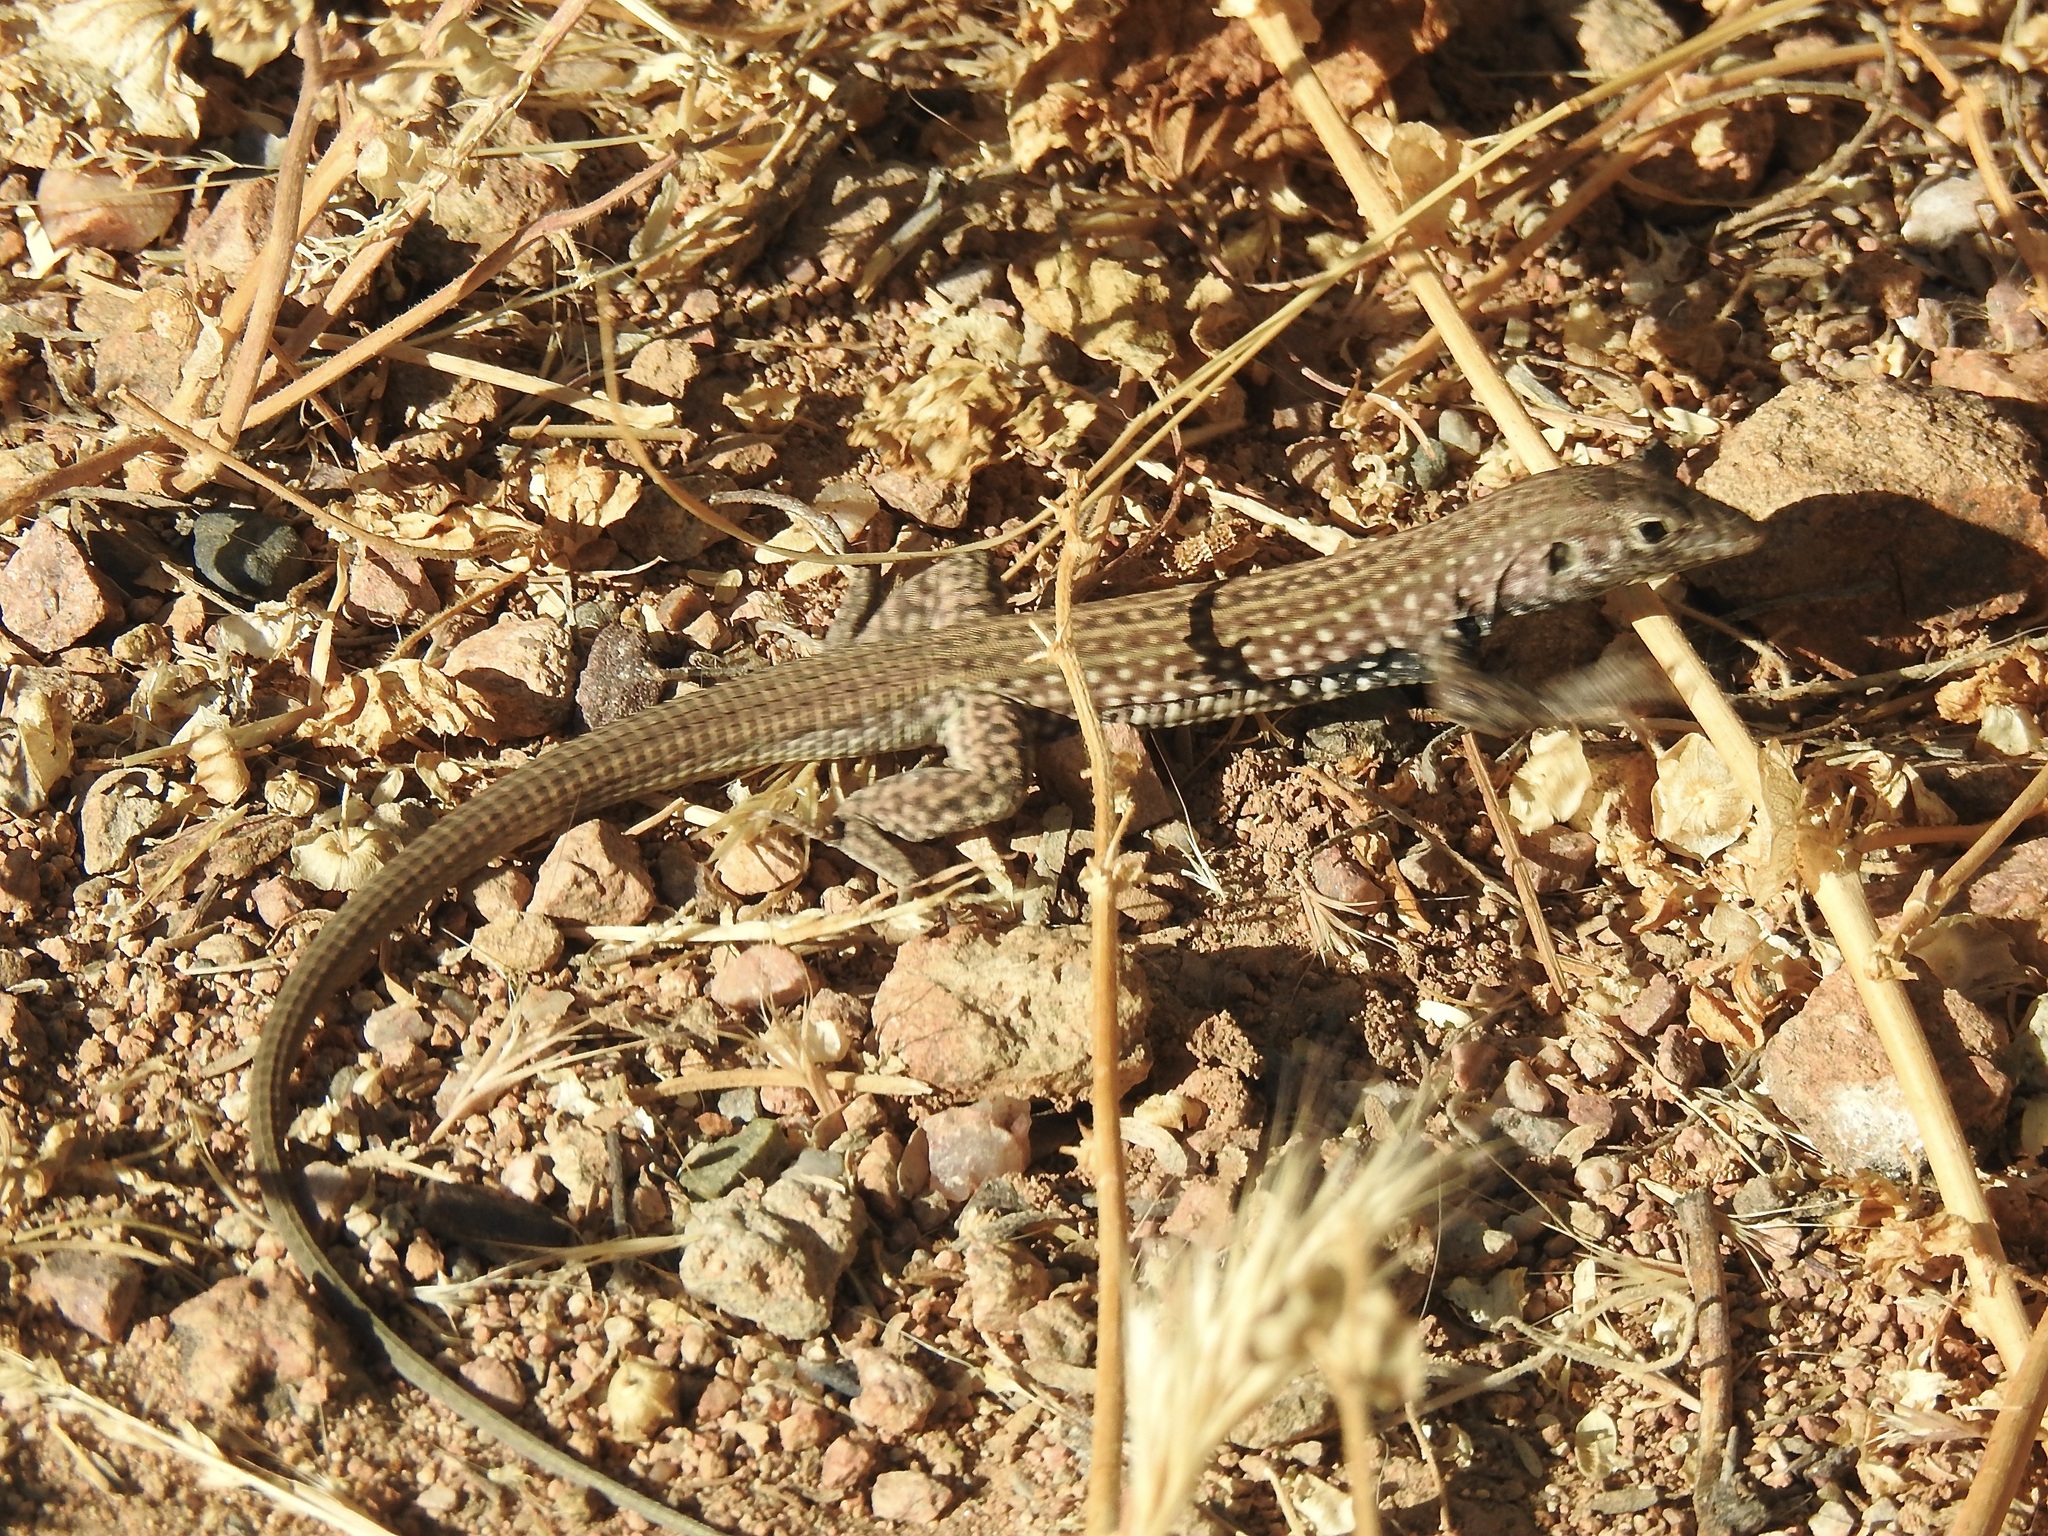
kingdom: Animalia
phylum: Chordata
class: Squamata
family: Teiidae
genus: Aspidoscelis
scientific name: Aspidoscelis tigris
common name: Tiger whiptail
